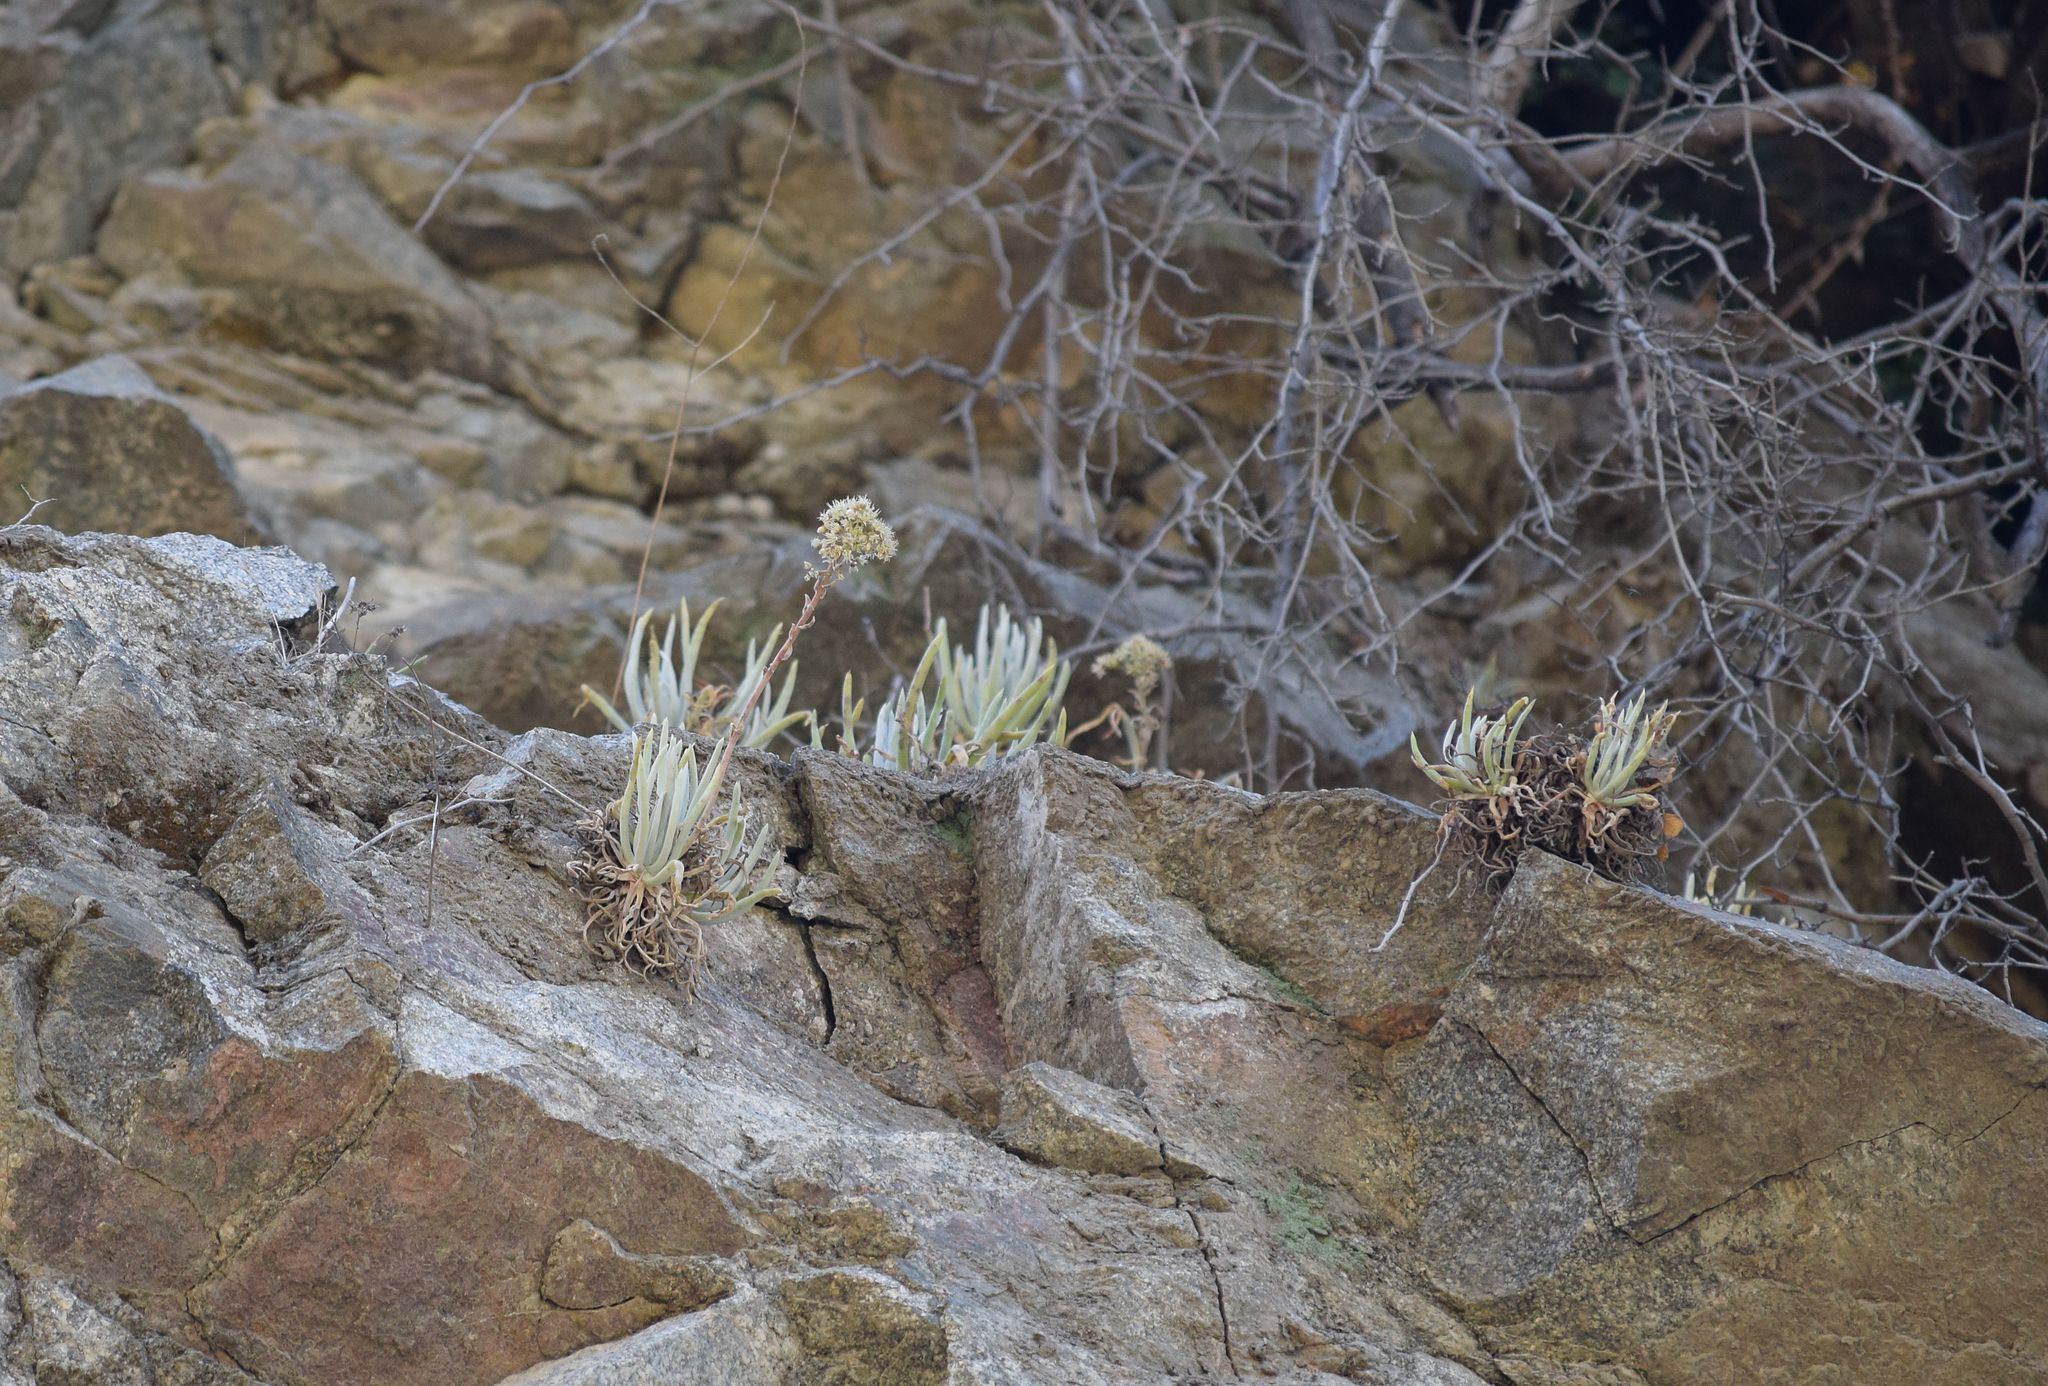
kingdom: Plantae
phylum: Tracheophyta
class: Magnoliopsida
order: Saxifragales
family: Crassulaceae
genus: Dudleya
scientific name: Dudleya densiflora
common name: San gabriel mountains dudleya
